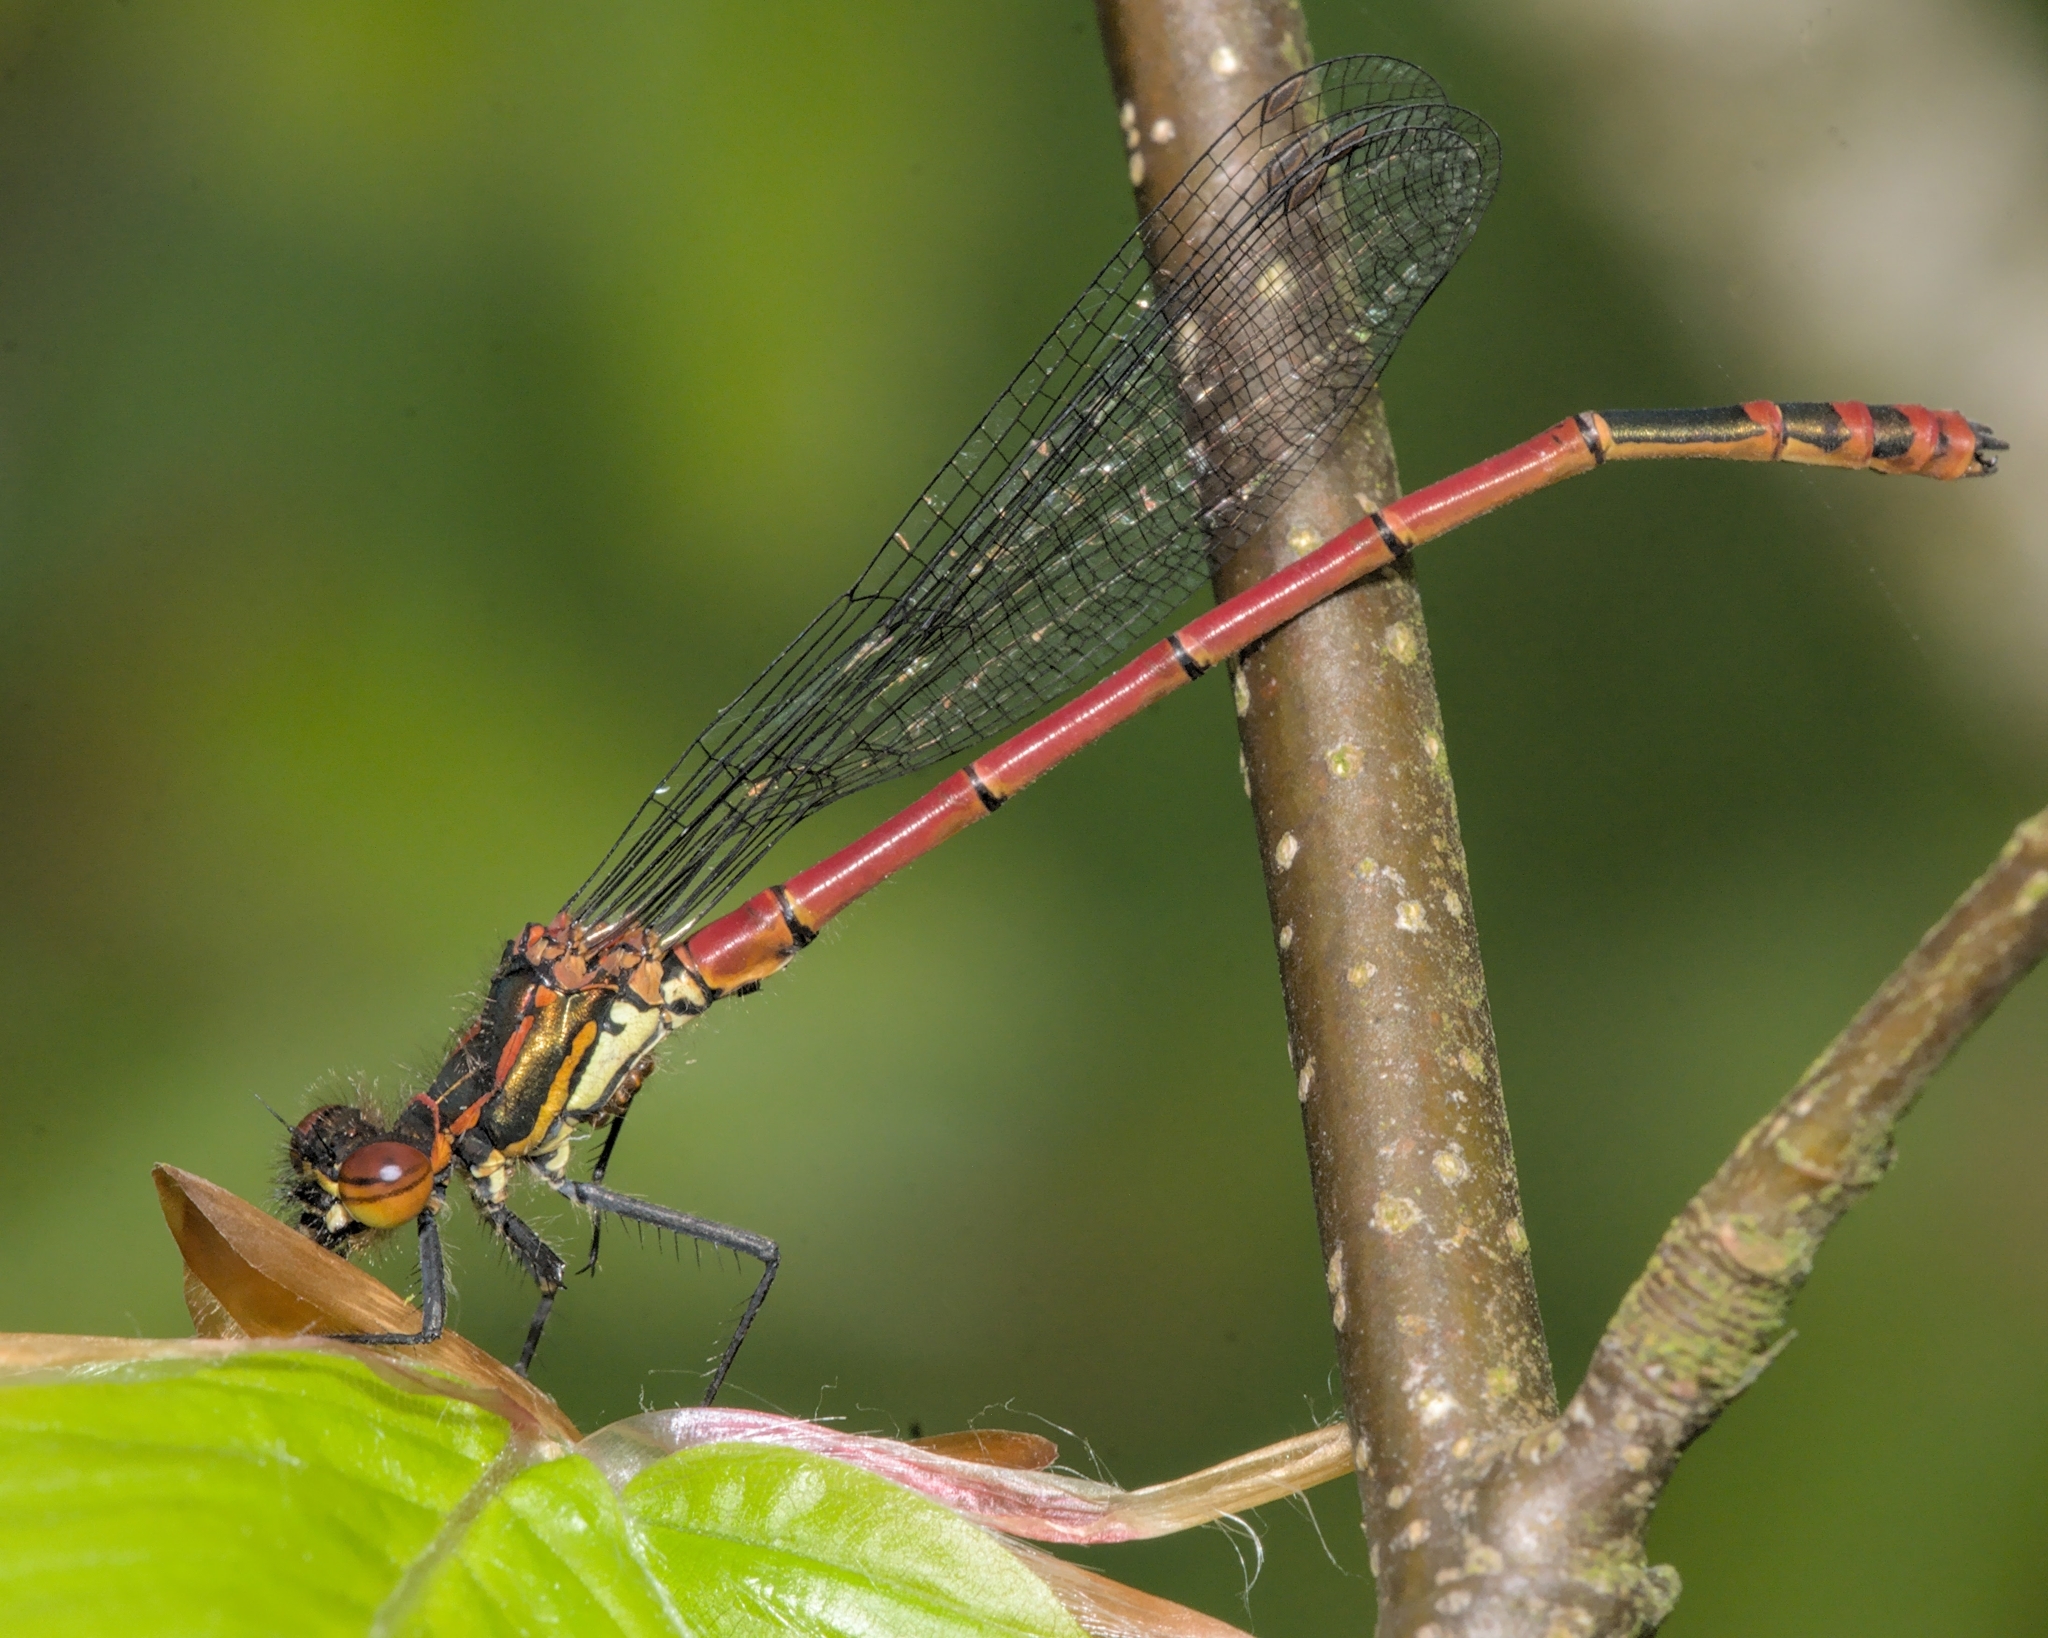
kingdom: Animalia
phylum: Arthropoda
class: Insecta
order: Odonata
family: Coenagrionidae
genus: Pyrrhosoma
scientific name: Pyrrhosoma nymphula
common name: Large red damsel
